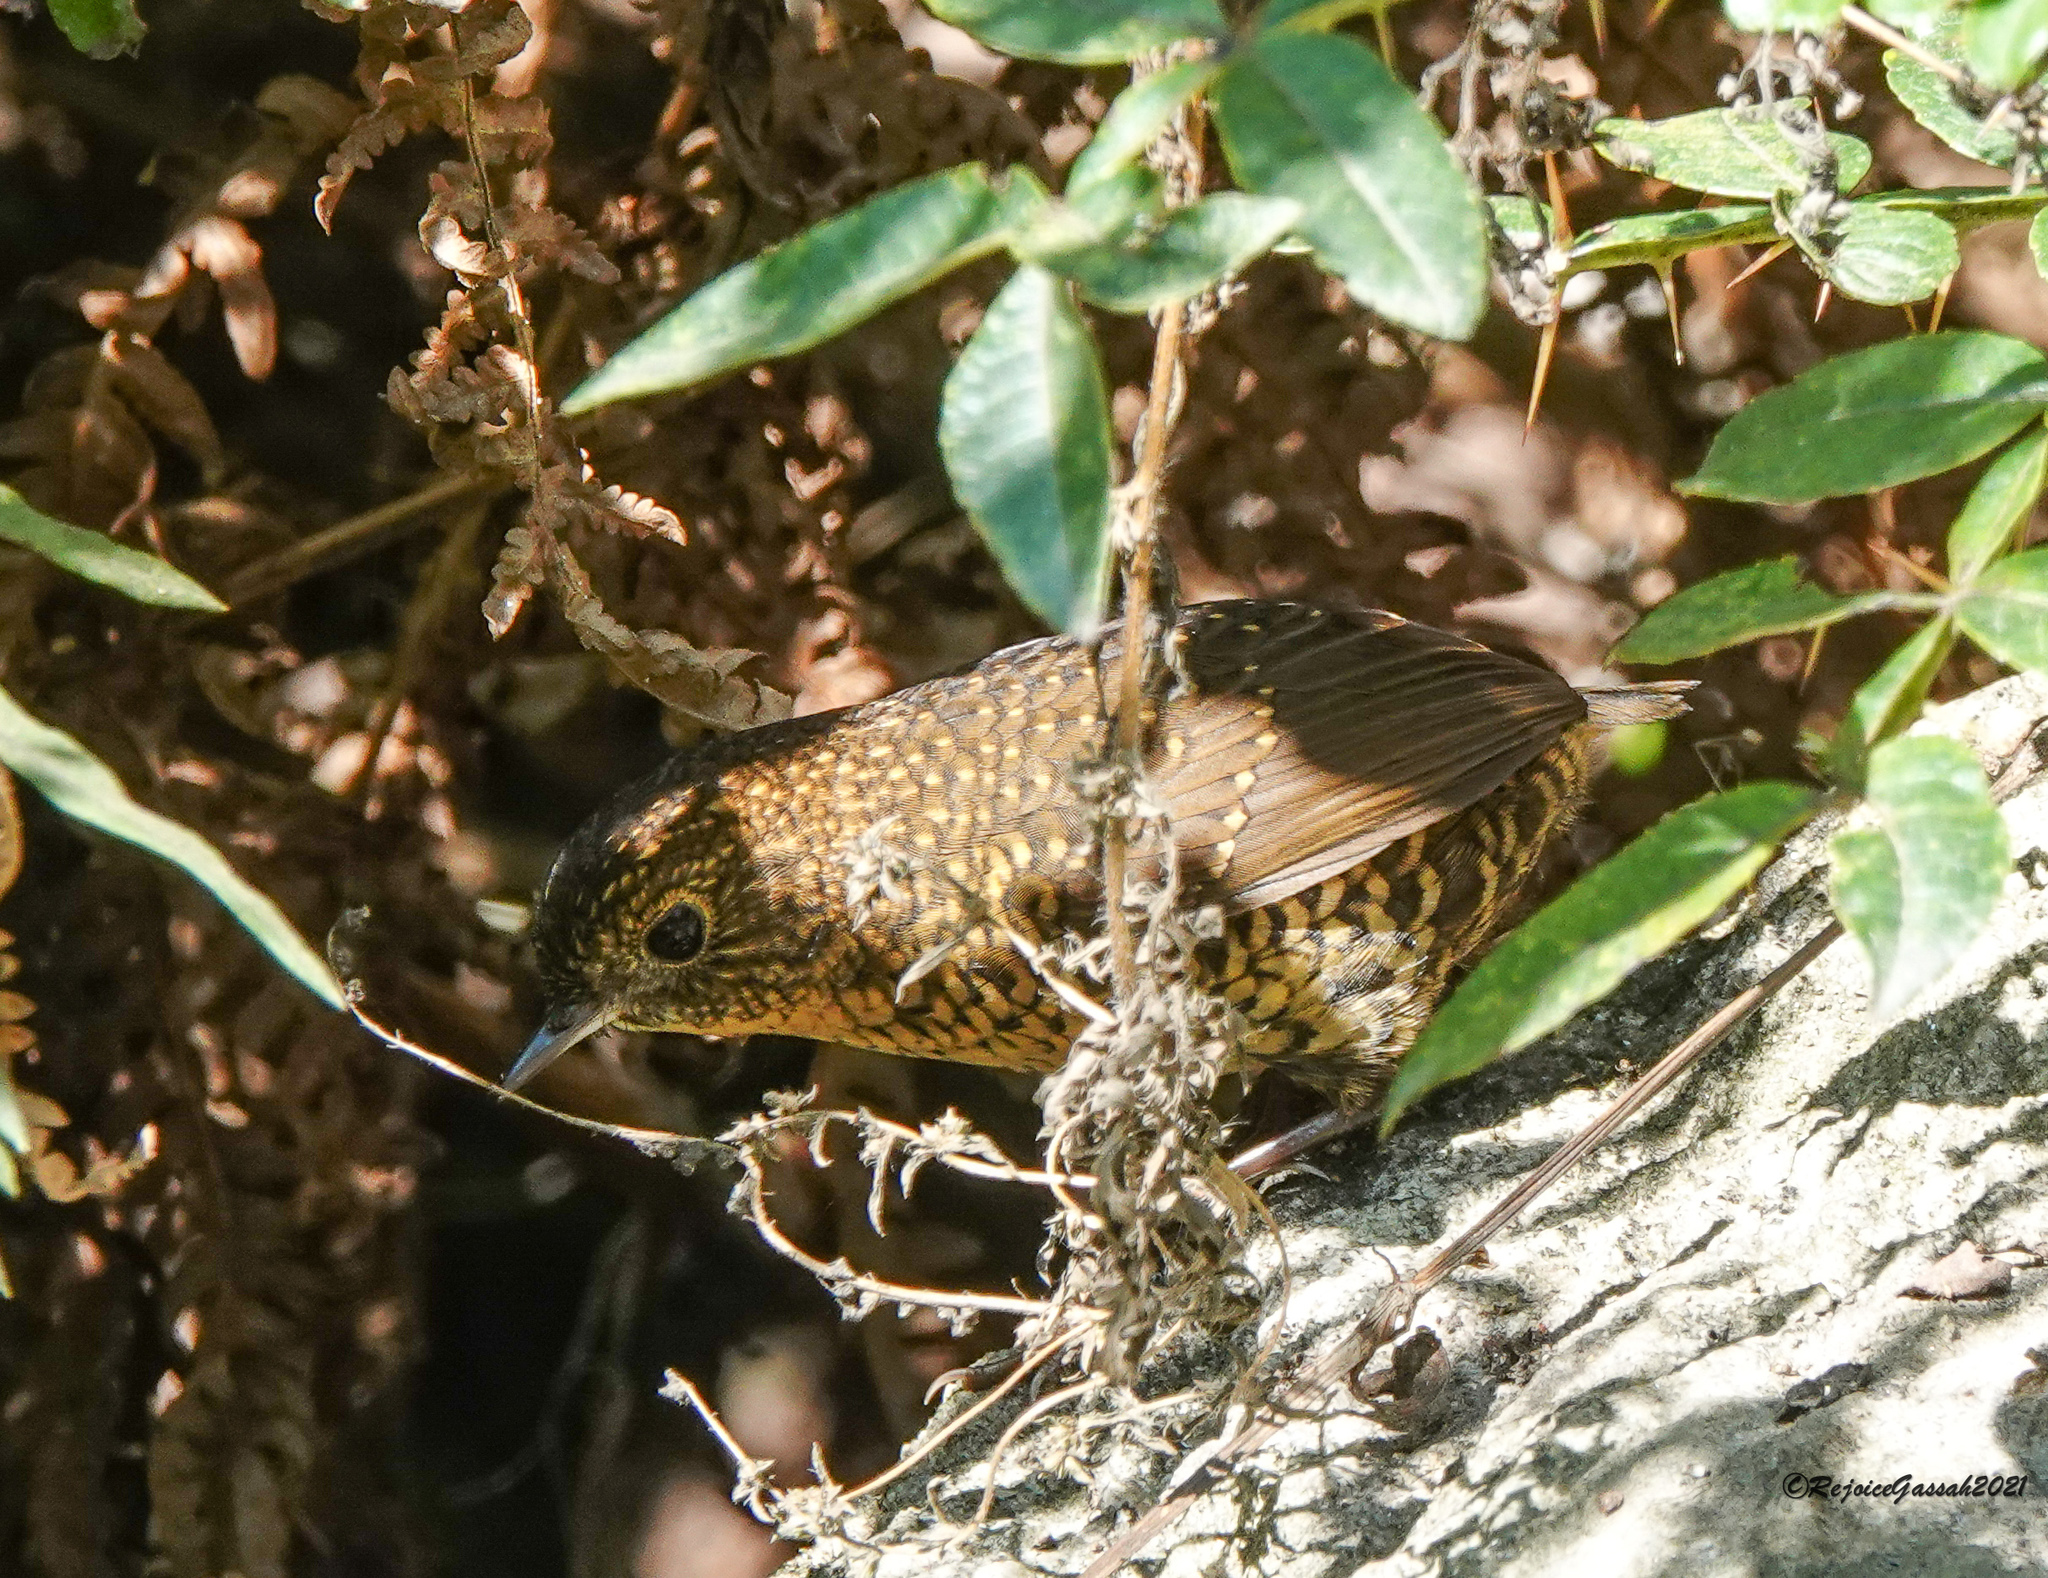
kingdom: Animalia
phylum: Chordata
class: Aves
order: Passeriformes
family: Pnoepygidae
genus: Pnoepyga
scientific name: Pnoepyga albiventer
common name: Scaly-breasted wren-babbler
